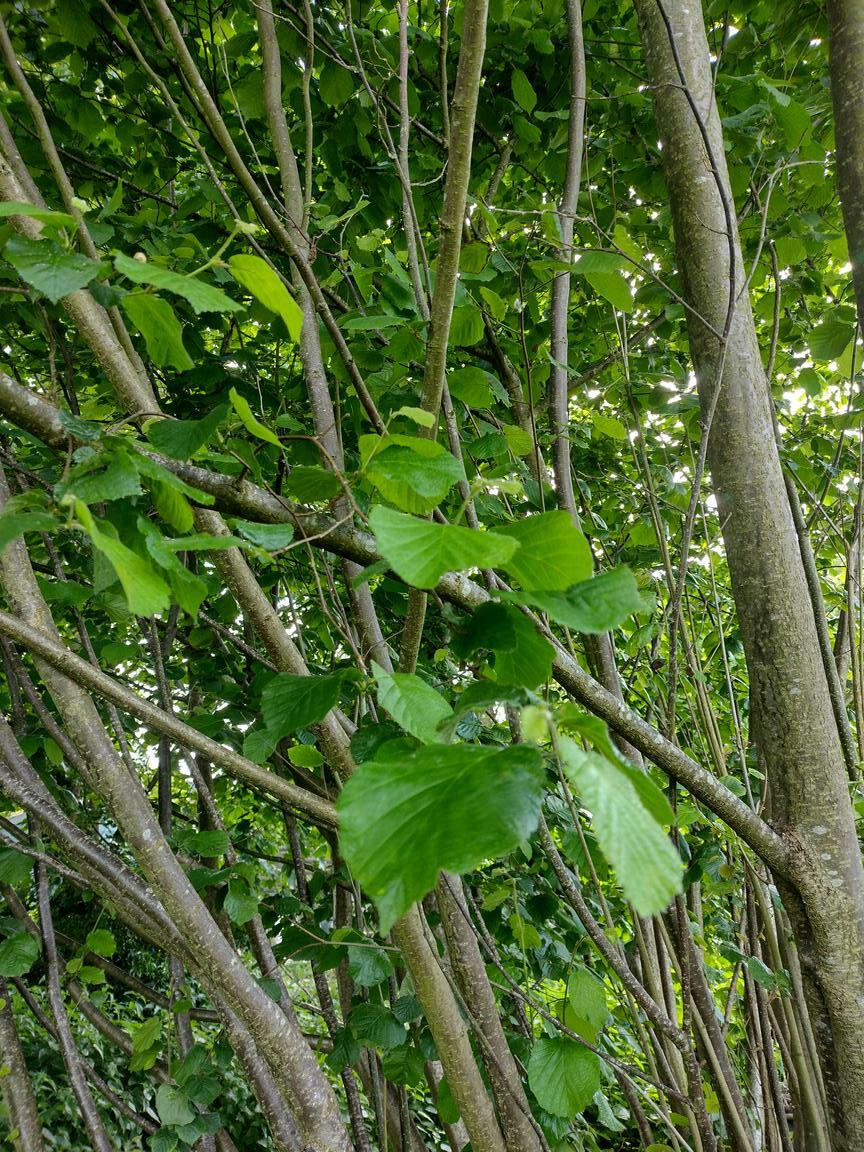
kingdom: Plantae
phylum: Tracheophyta
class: Magnoliopsida
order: Fagales
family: Betulaceae
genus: Corylus
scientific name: Corylus avellana
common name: European hazel
